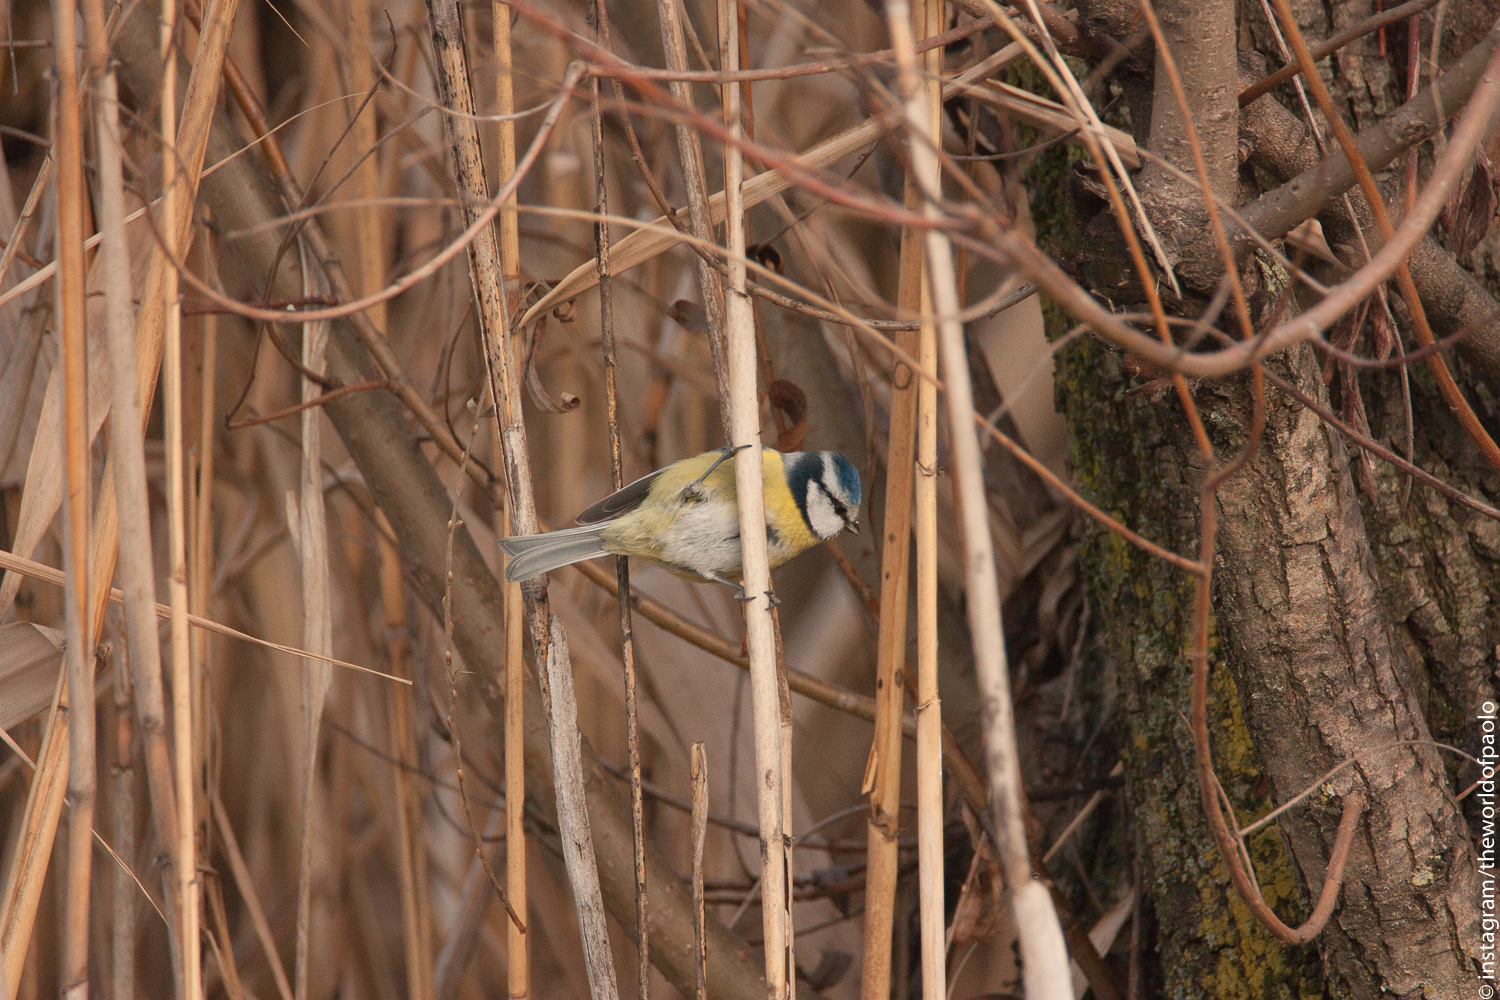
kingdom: Animalia
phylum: Chordata
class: Aves
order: Passeriformes
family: Paridae
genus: Cyanistes
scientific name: Cyanistes caeruleus
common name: Eurasian blue tit
